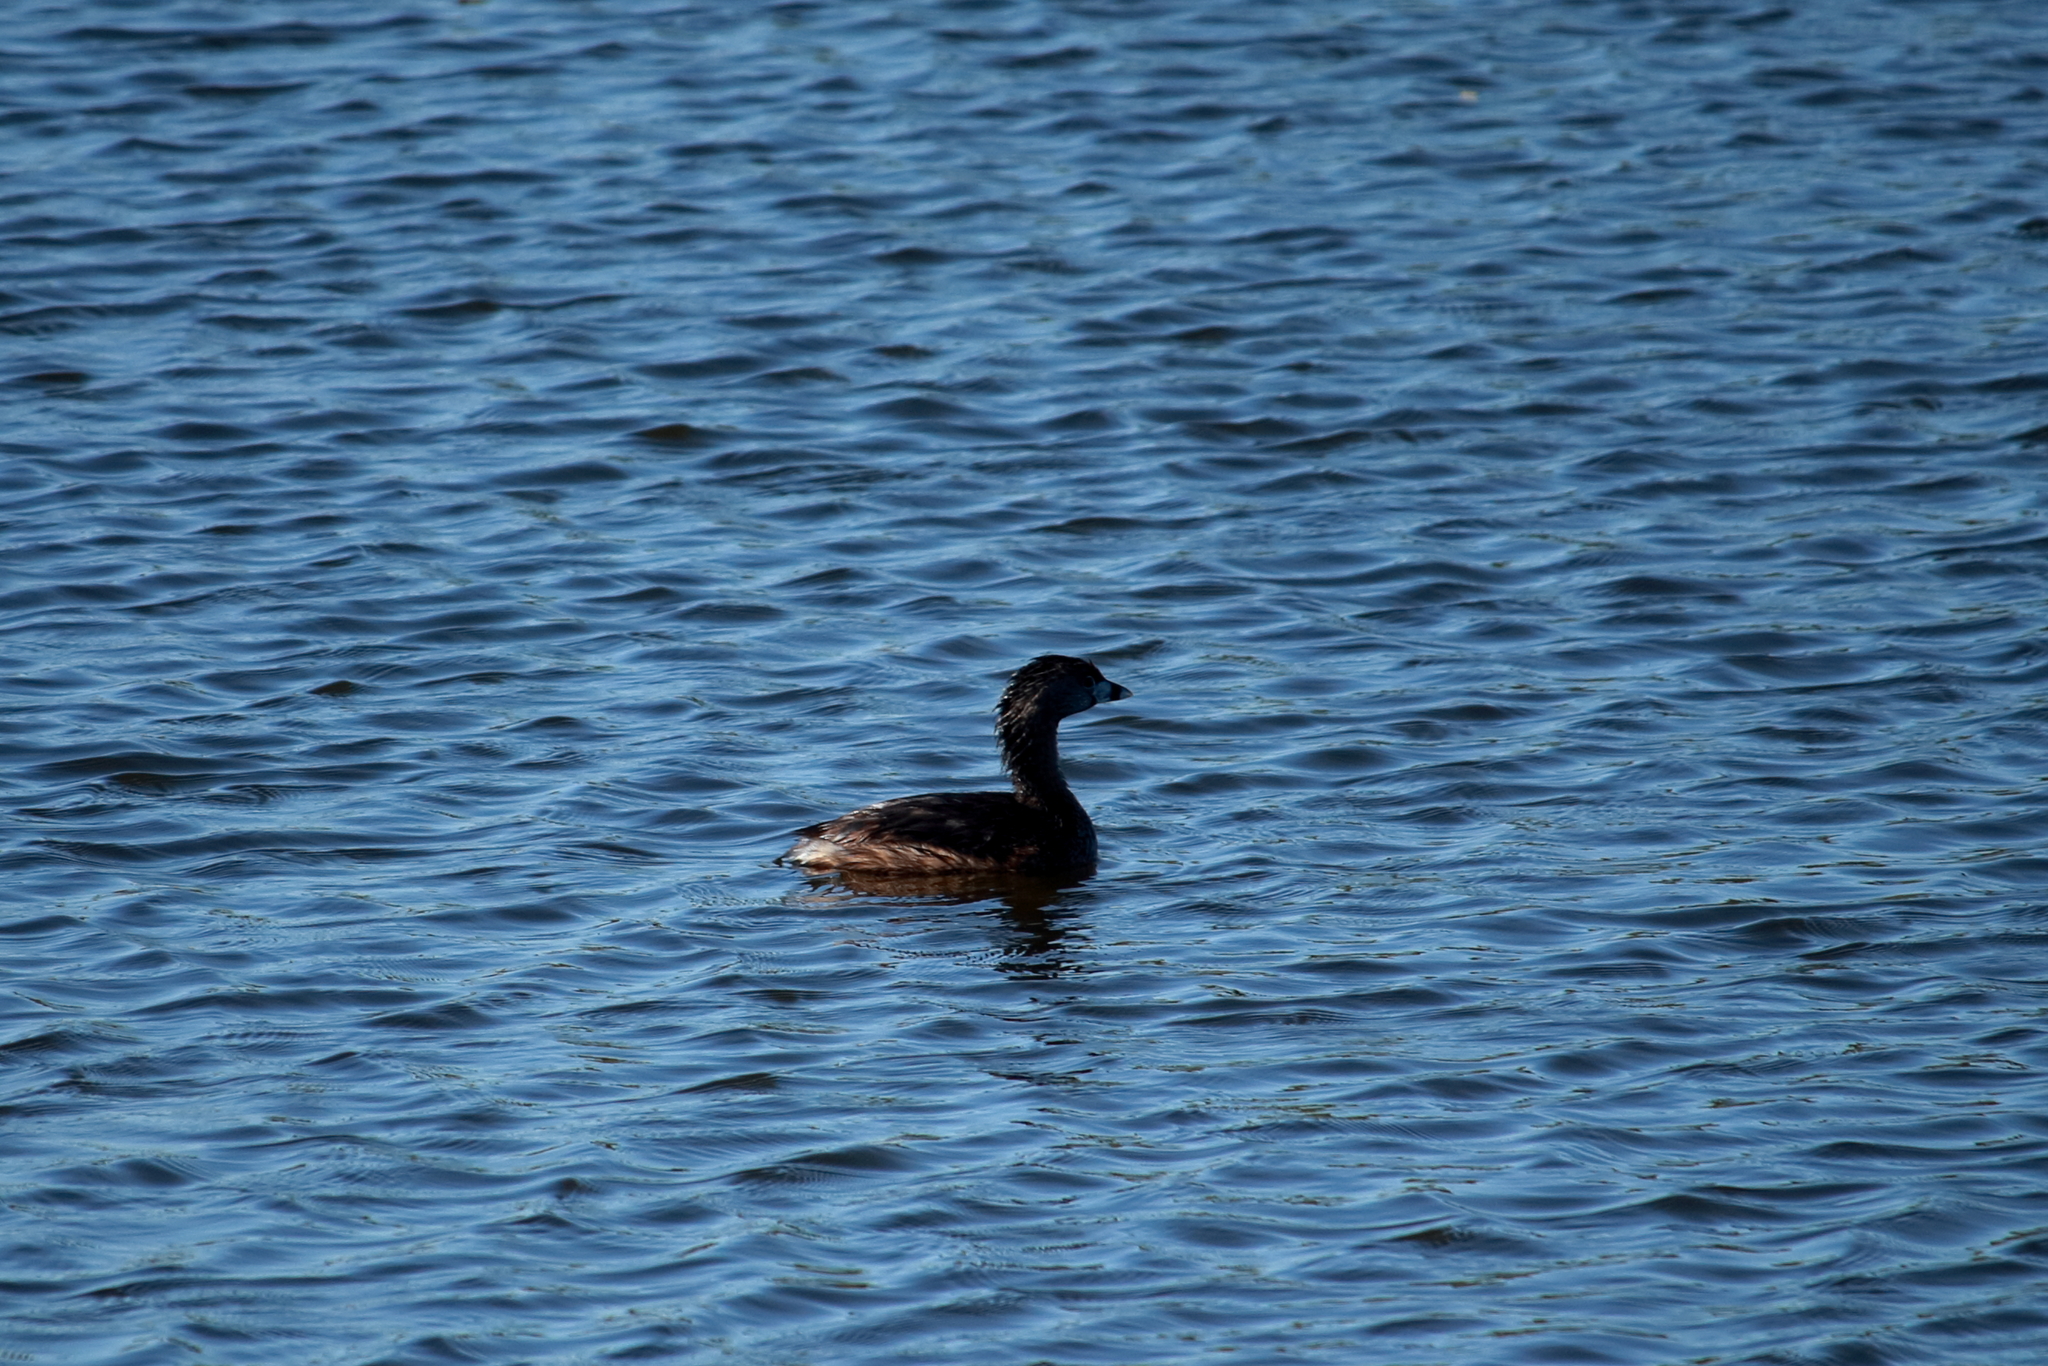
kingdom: Animalia
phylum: Chordata
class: Aves
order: Podicipediformes
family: Podicipedidae
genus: Podilymbus
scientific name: Podilymbus podiceps
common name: Pied-billed grebe
